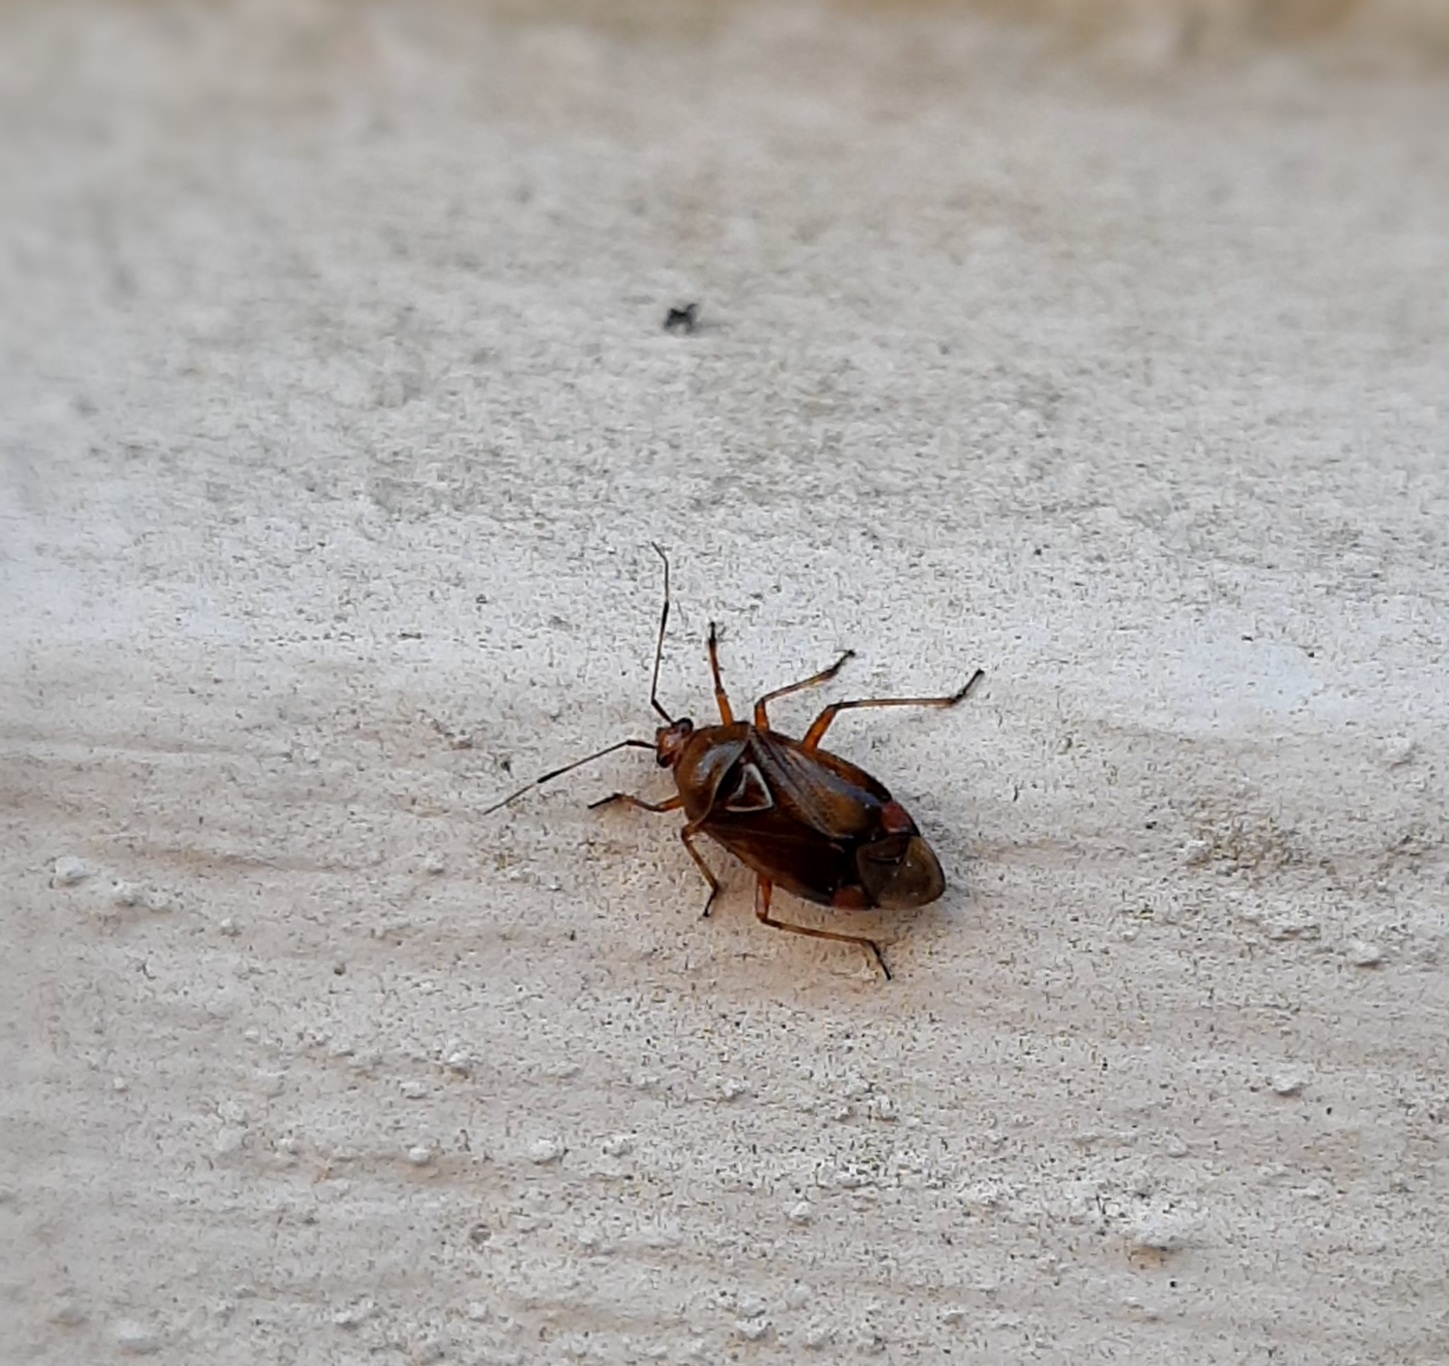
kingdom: Animalia
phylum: Arthropoda
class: Insecta
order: Hemiptera
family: Miridae
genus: Deraeocoris
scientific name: Deraeocoris flavilinea
